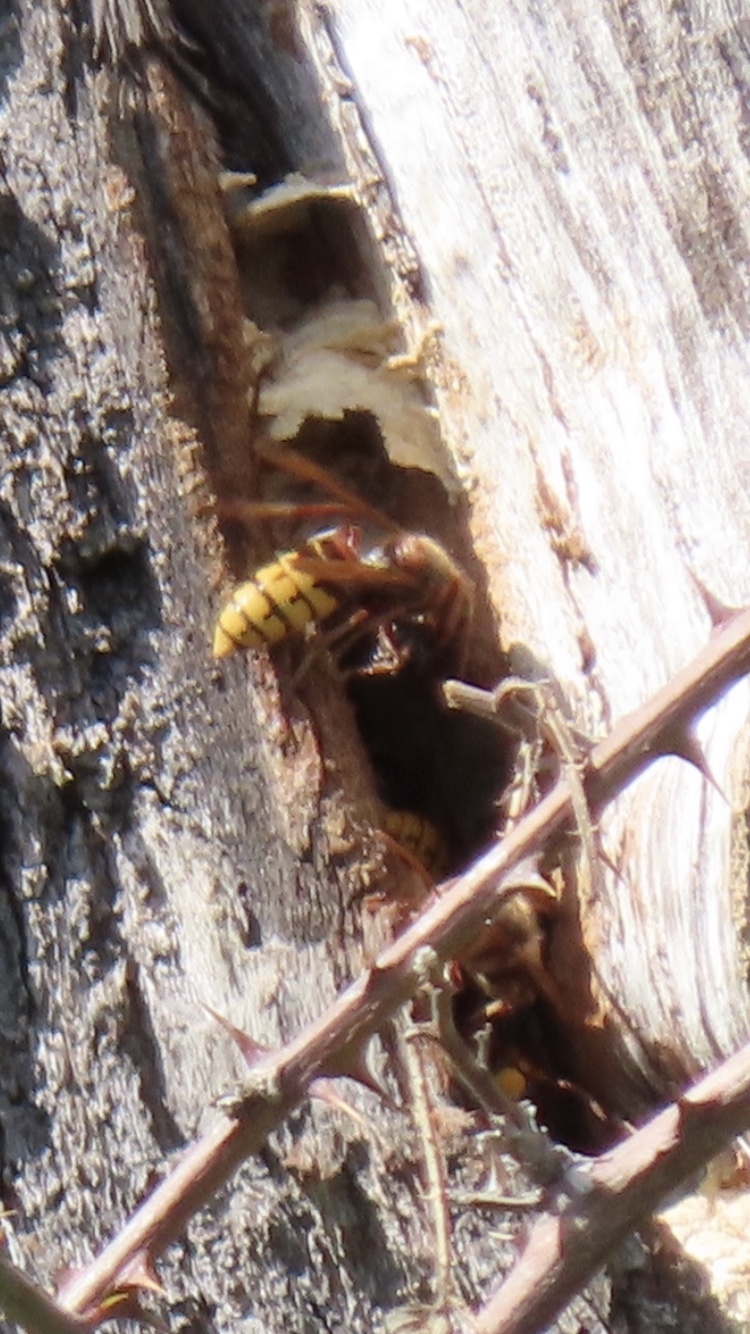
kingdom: Animalia
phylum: Arthropoda
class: Insecta
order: Hymenoptera
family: Vespidae
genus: Vespa
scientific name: Vespa crabro
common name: Hornet
